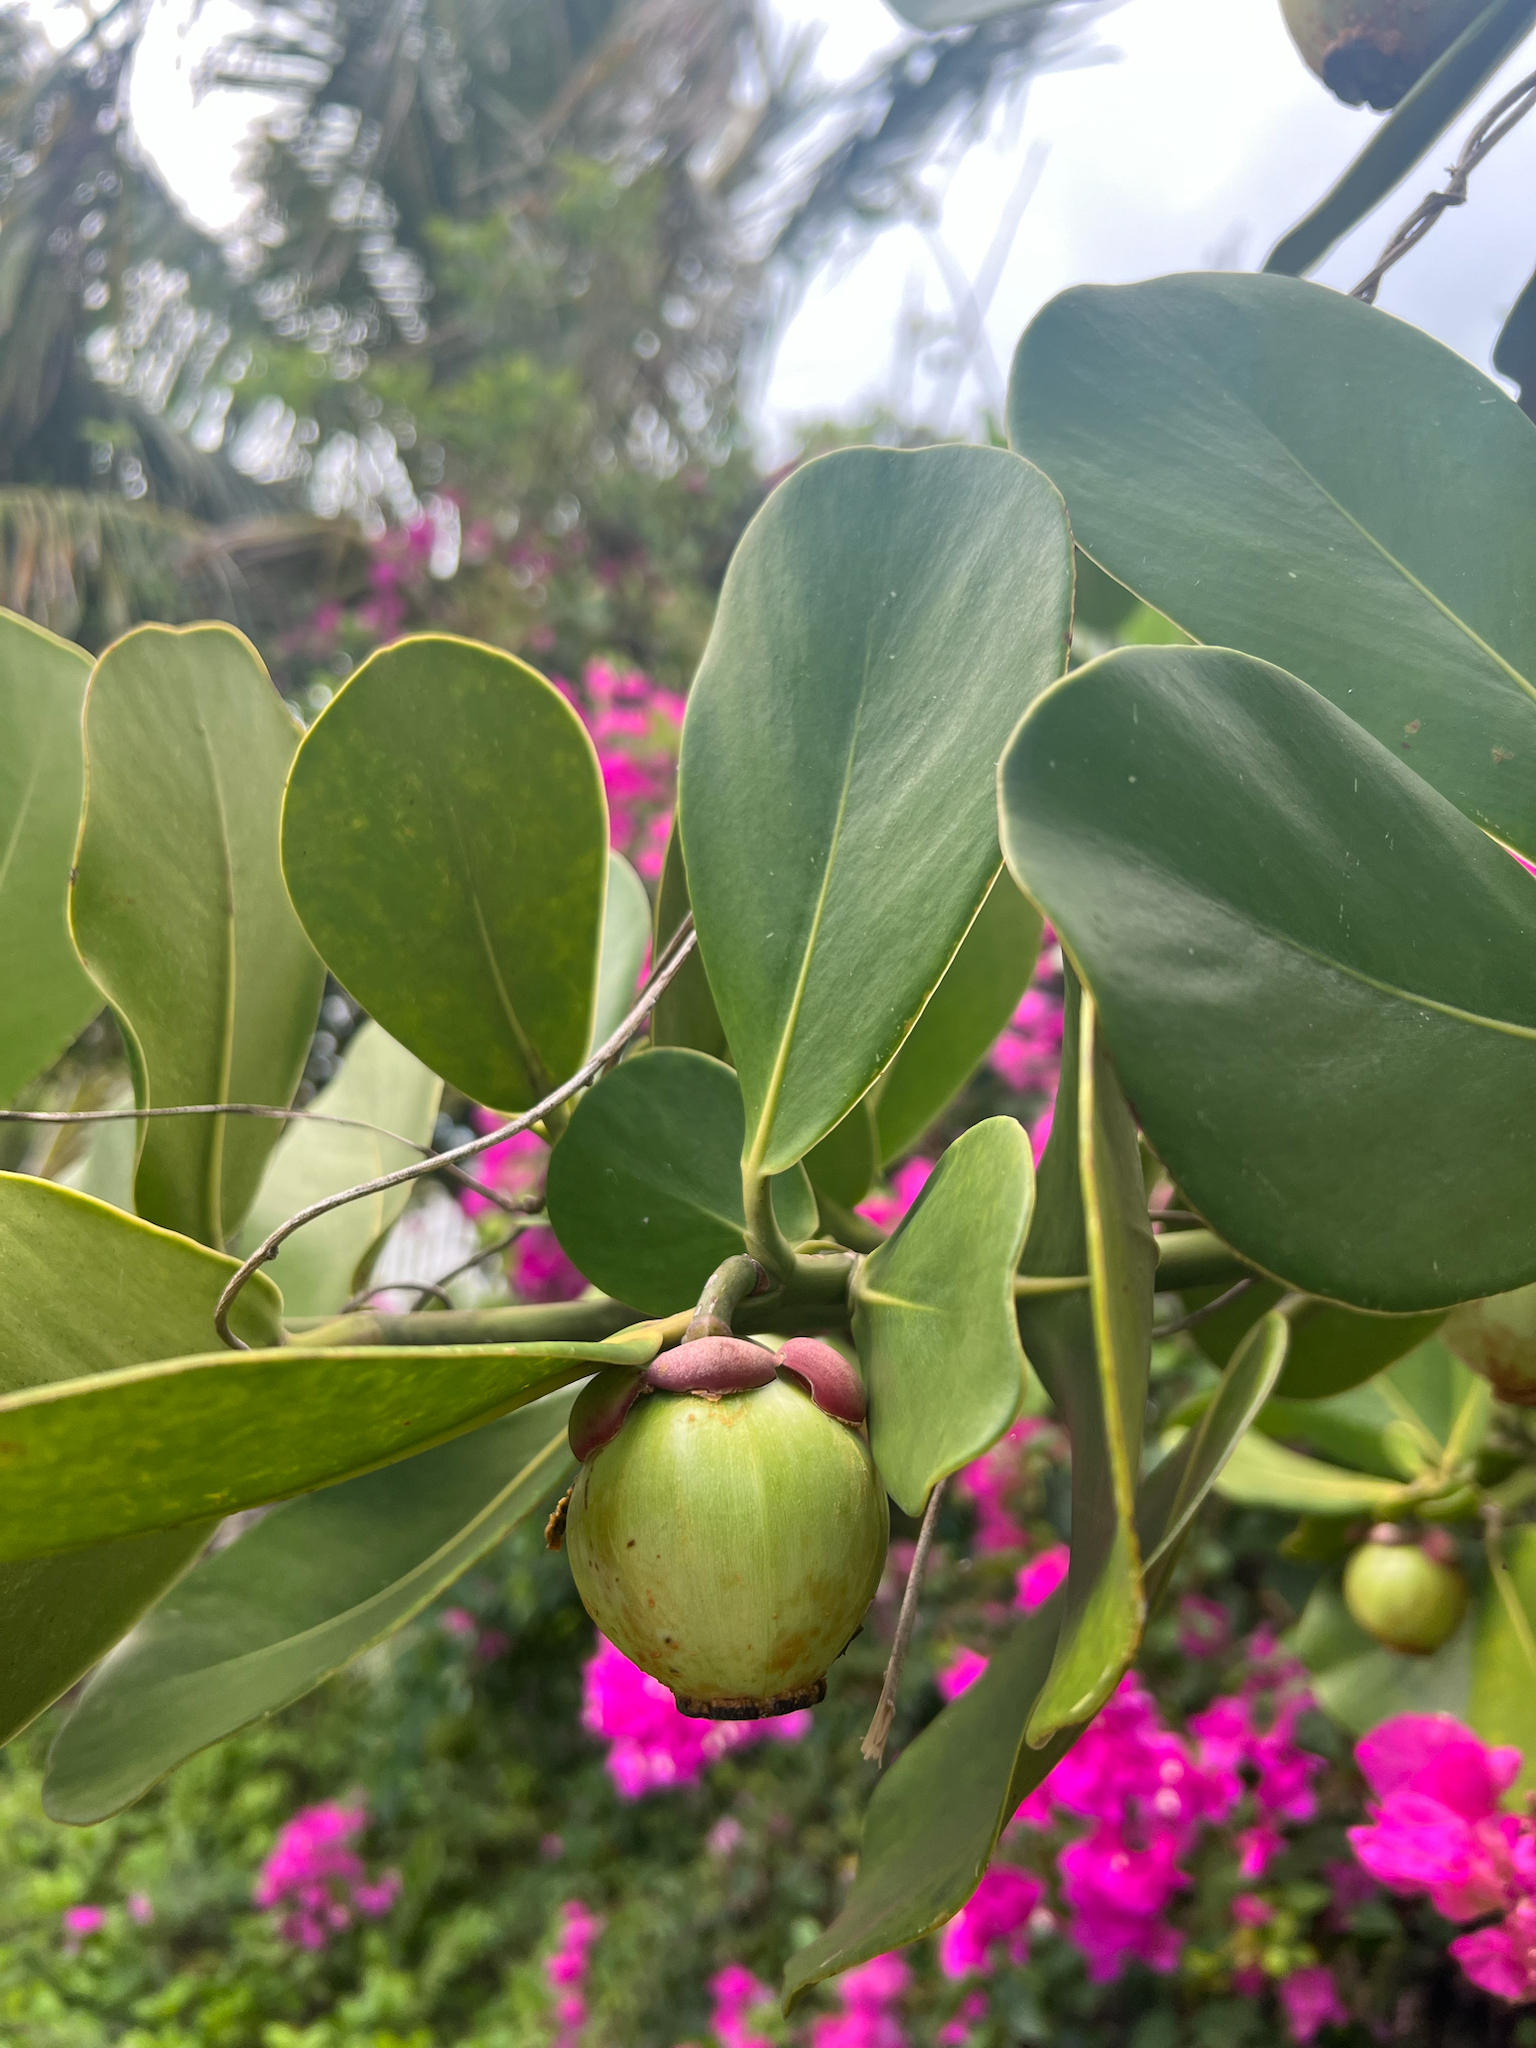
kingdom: Plantae
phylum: Tracheophyta
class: Magnoliopsida
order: Malpighiales
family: Clusiaceae
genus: Clusia
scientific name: Clusia rosea
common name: Scotch attorney
